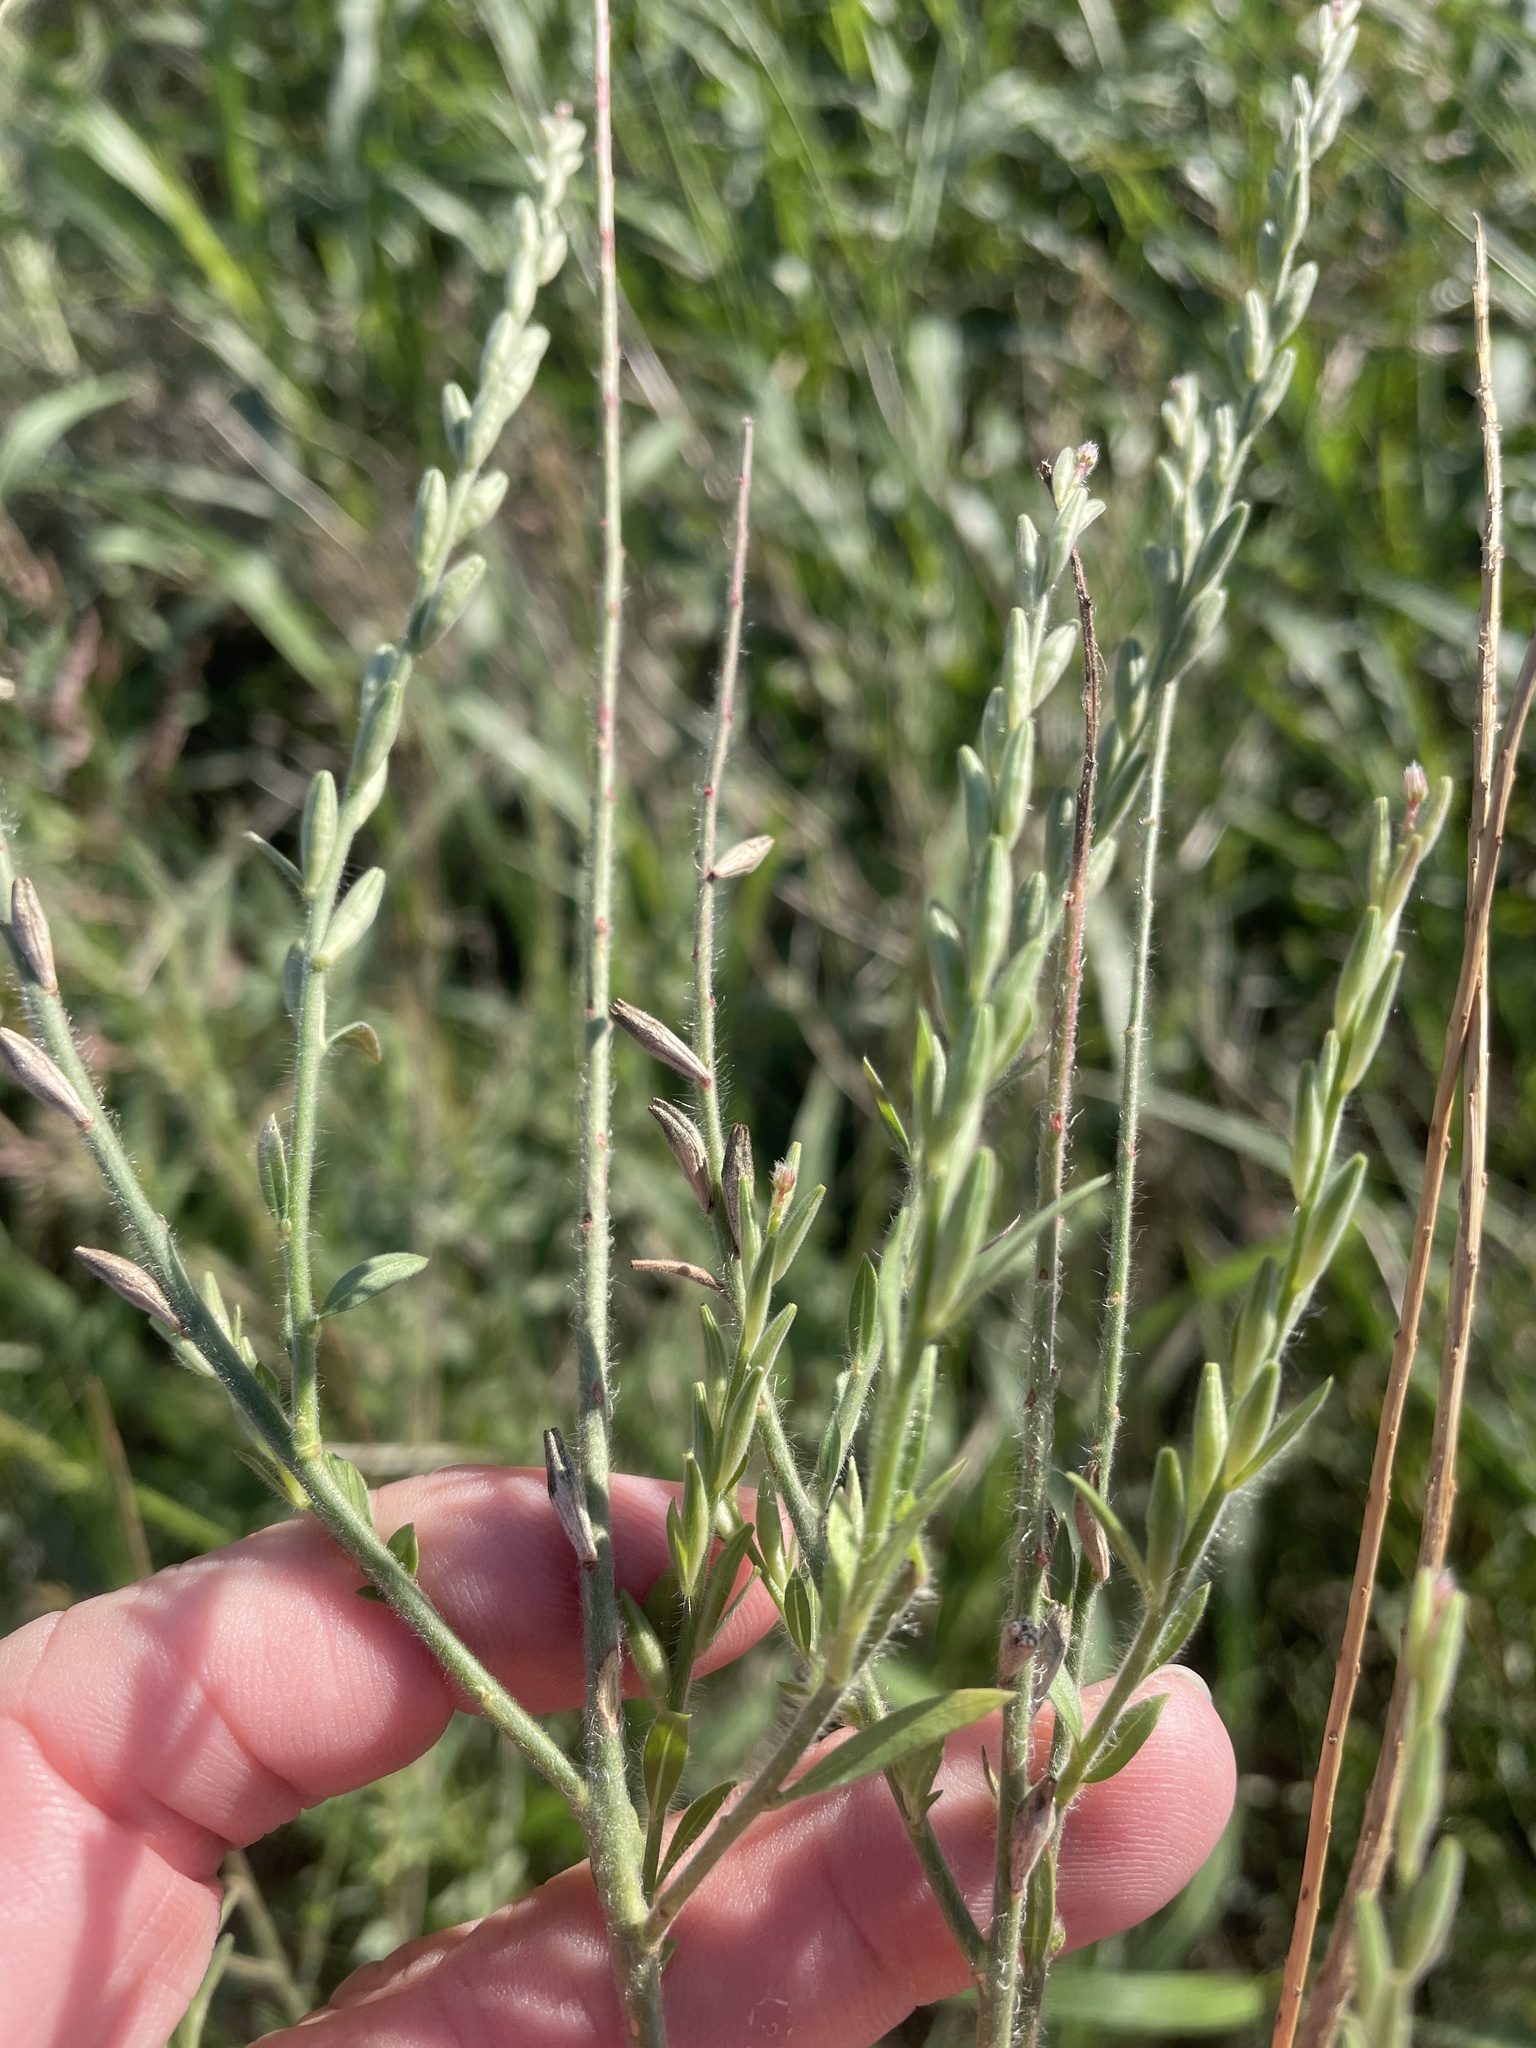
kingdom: Plantae
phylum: Tracheophyta
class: Magnoliopsida
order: Myrtales
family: Onagraceae
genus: Oenothera
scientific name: Oenothera curtiflora
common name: Velvetweed
